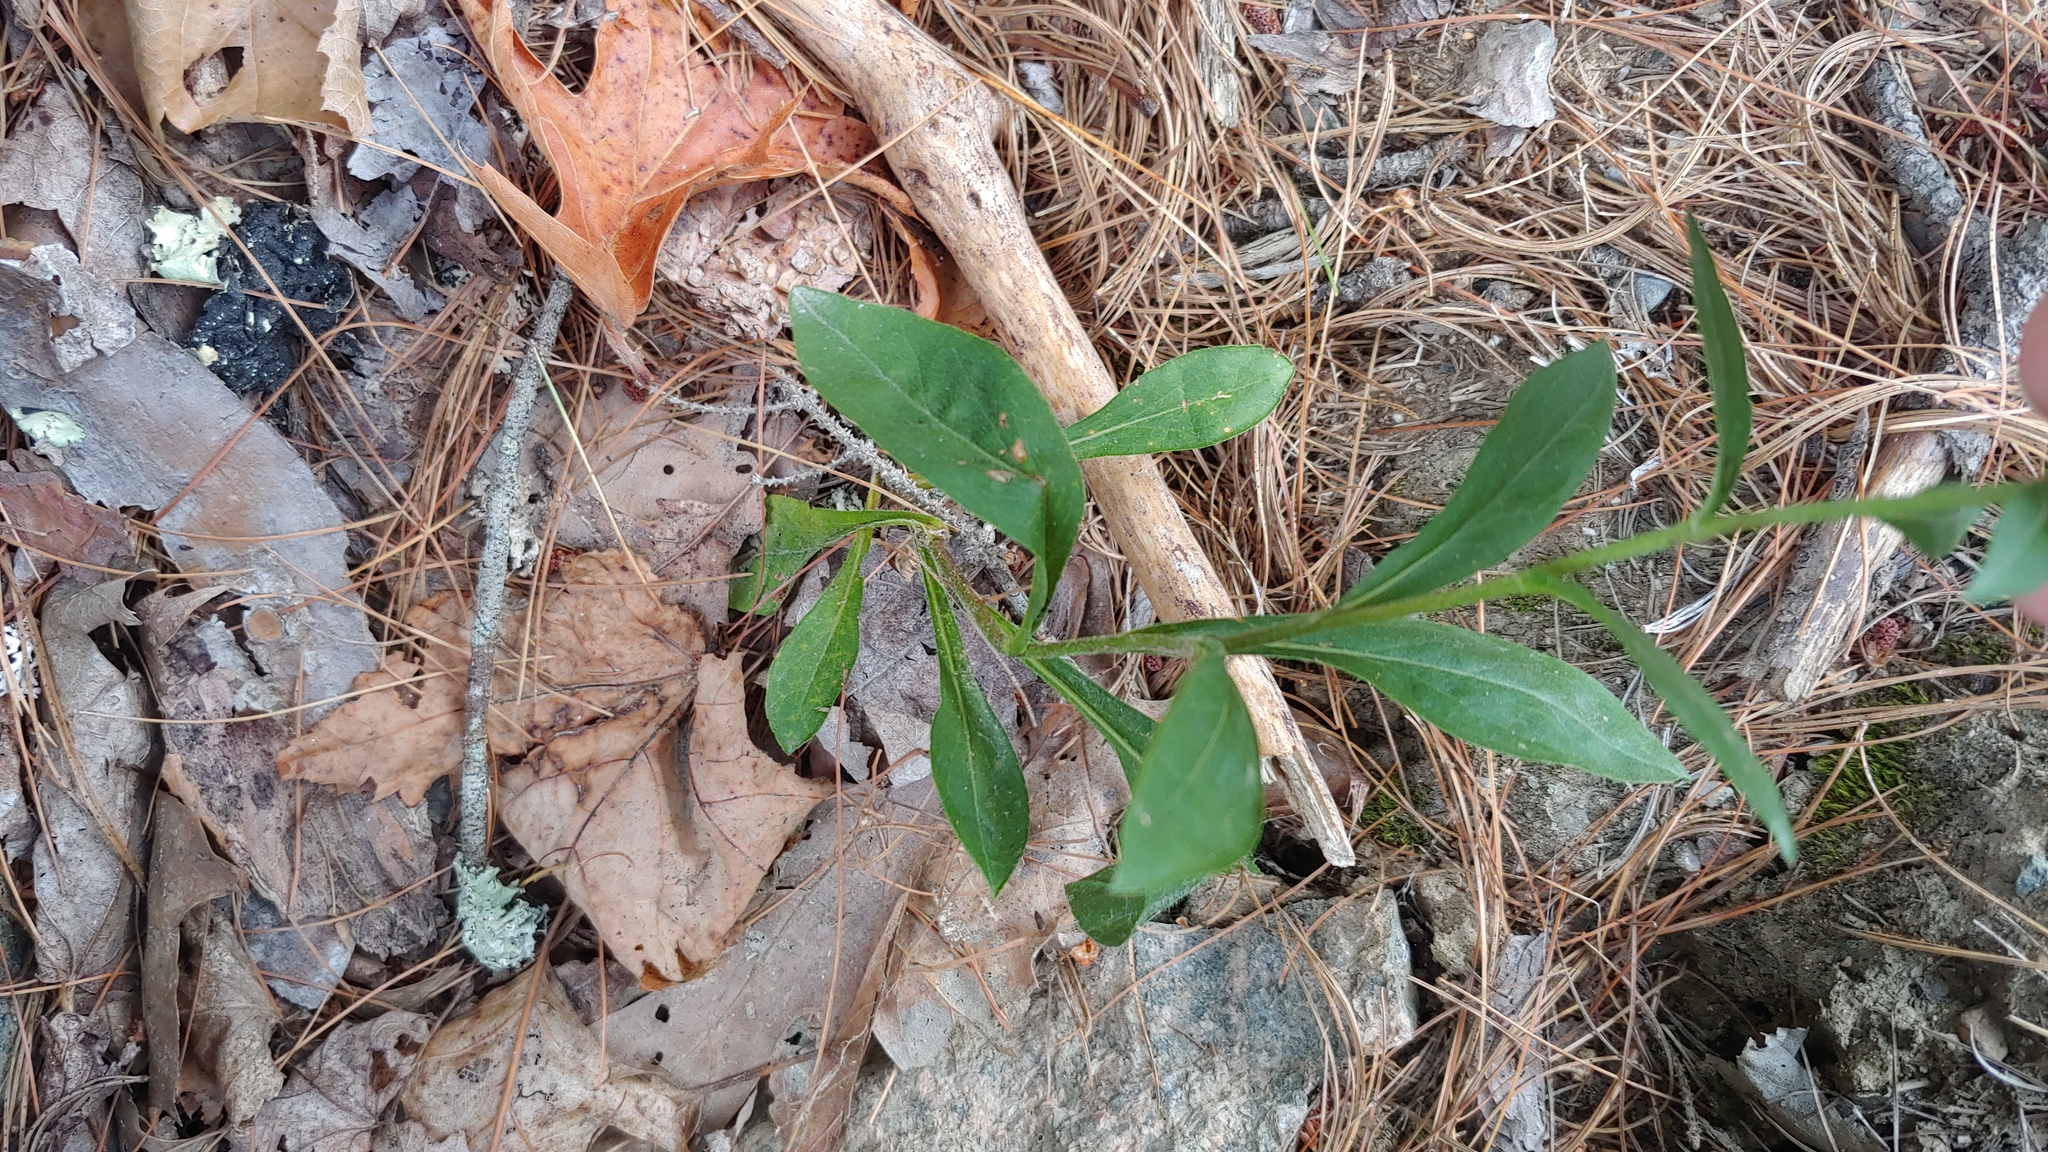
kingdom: Plantae
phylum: Tracheophyta
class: Magnoliopsida
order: Asterales
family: Asteraceae
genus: Solidago
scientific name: Solidago bicolor
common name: Silverrod
